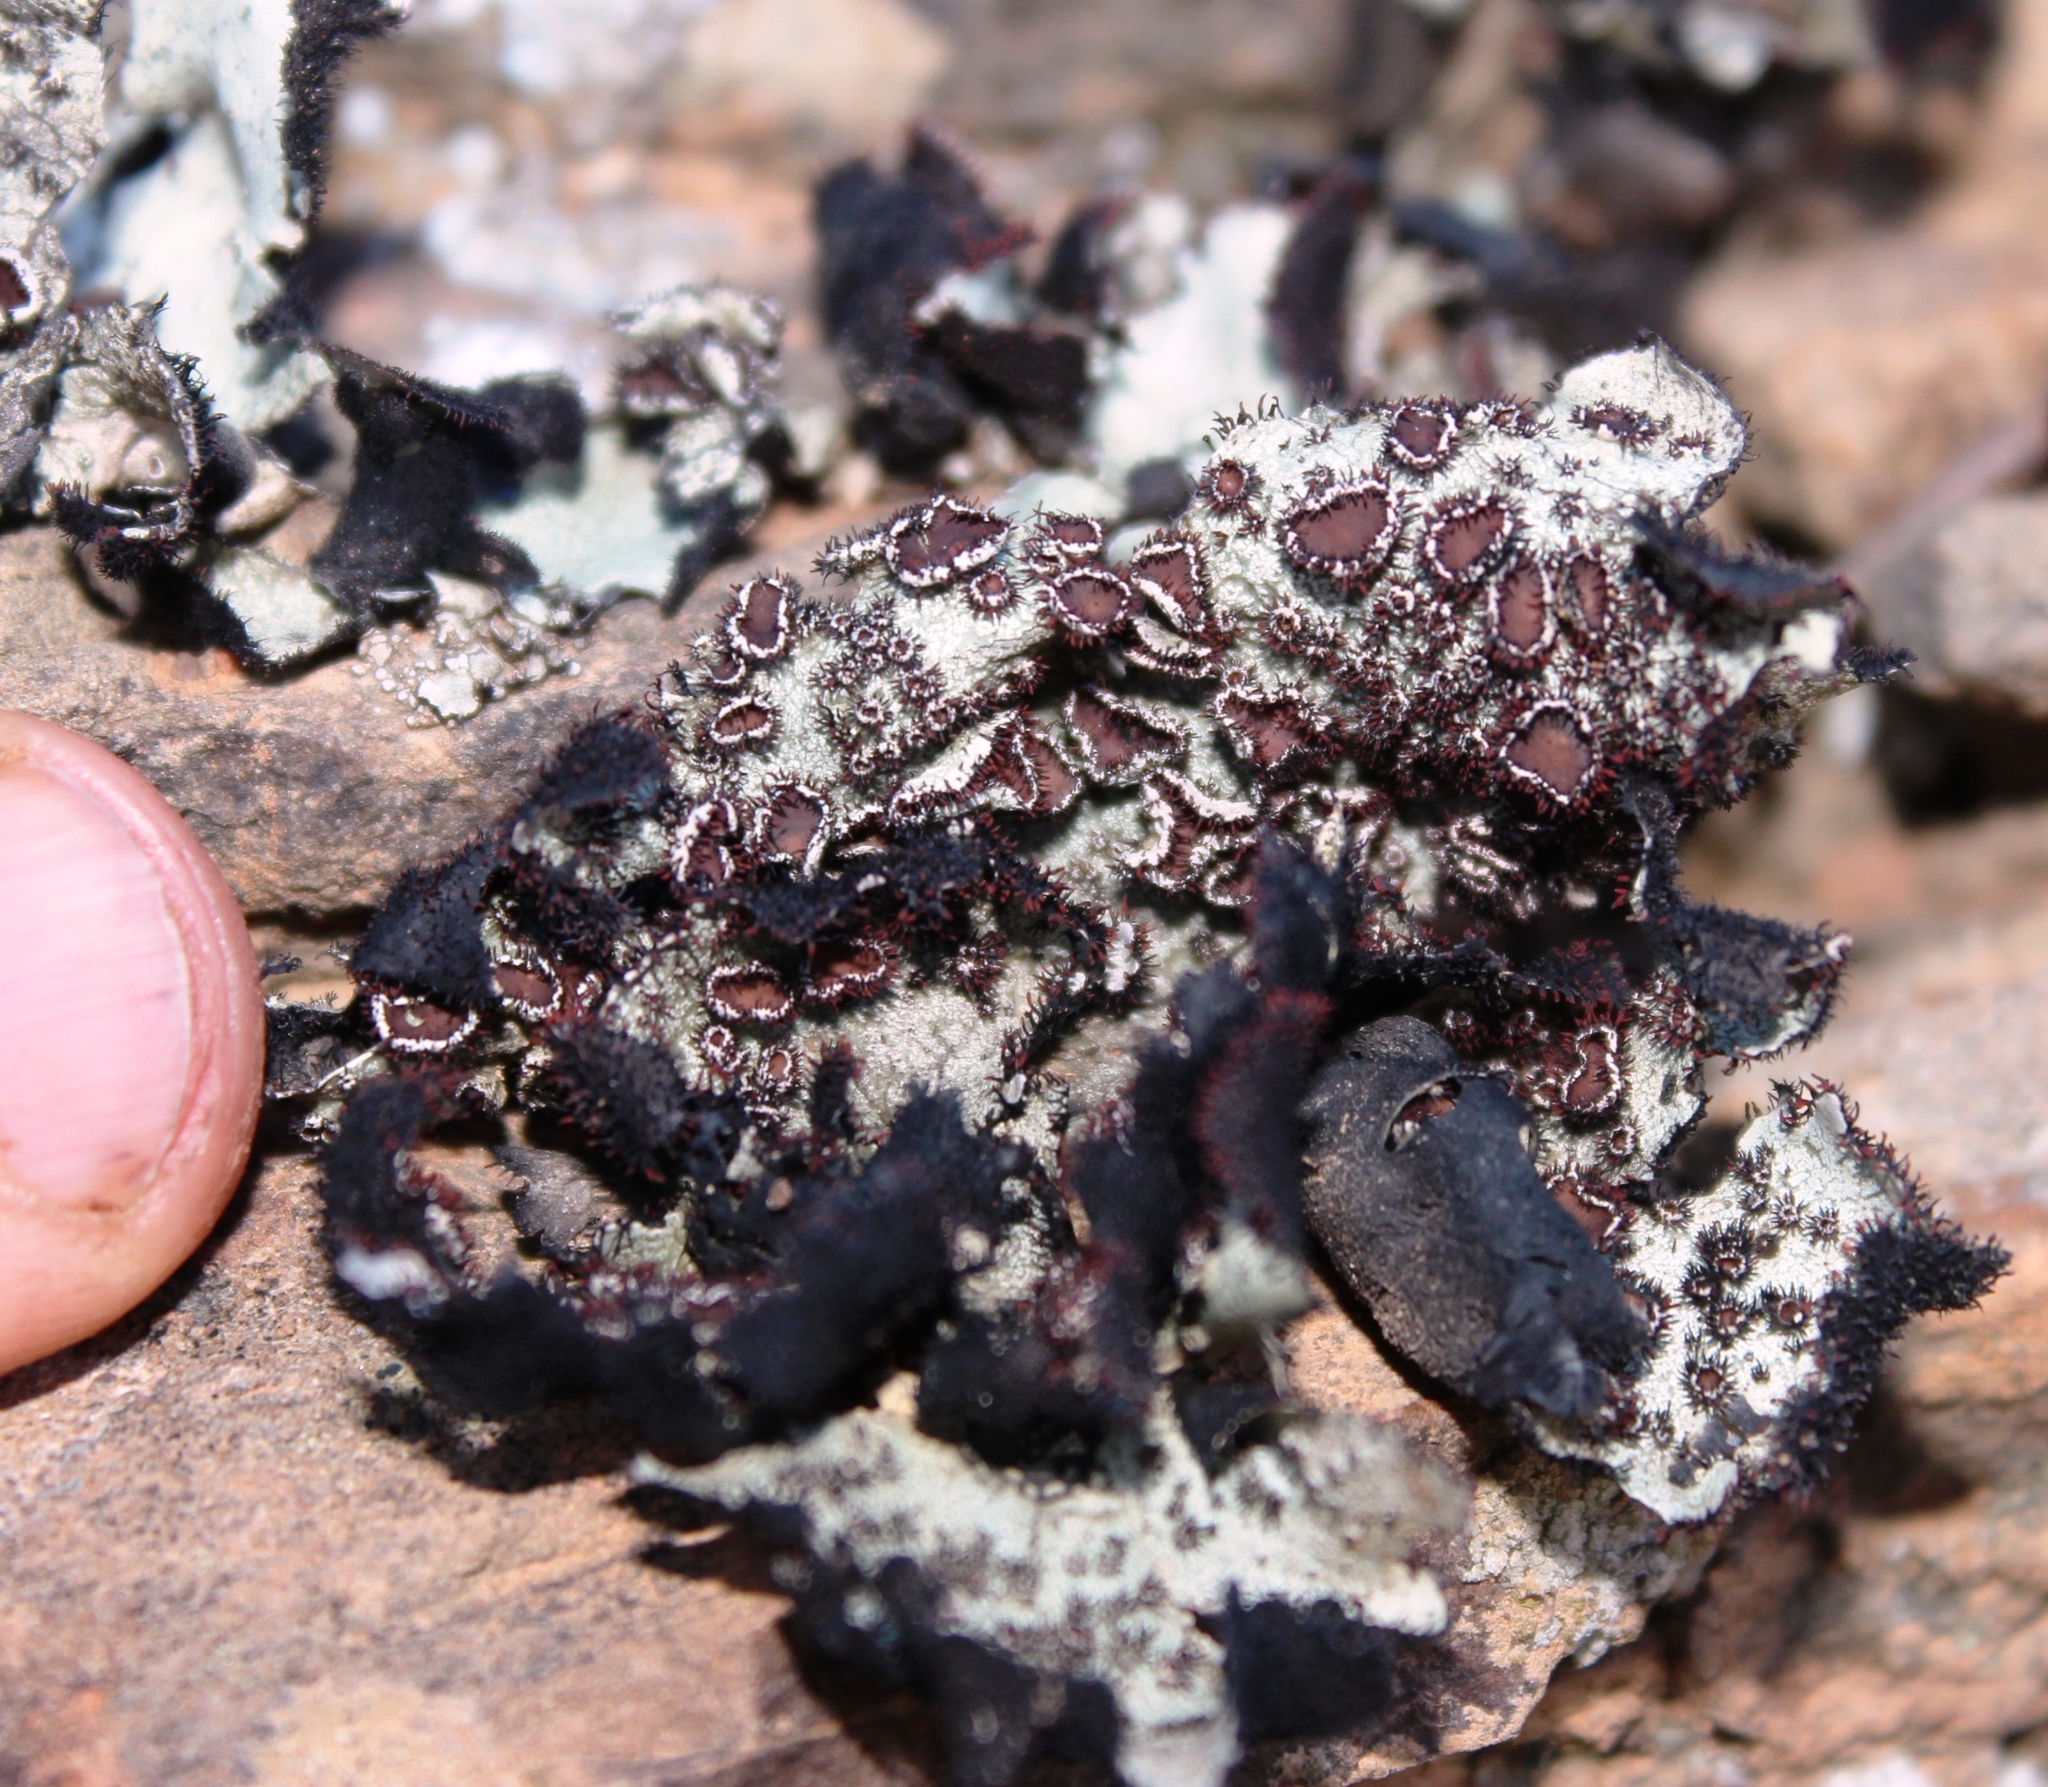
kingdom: Fungi
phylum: Ascomycota
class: Lecanoromycetes
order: Lecanorales
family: Parmeliaceae
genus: Xanthoparmelia
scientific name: Xanthoparmelia hottentotta
